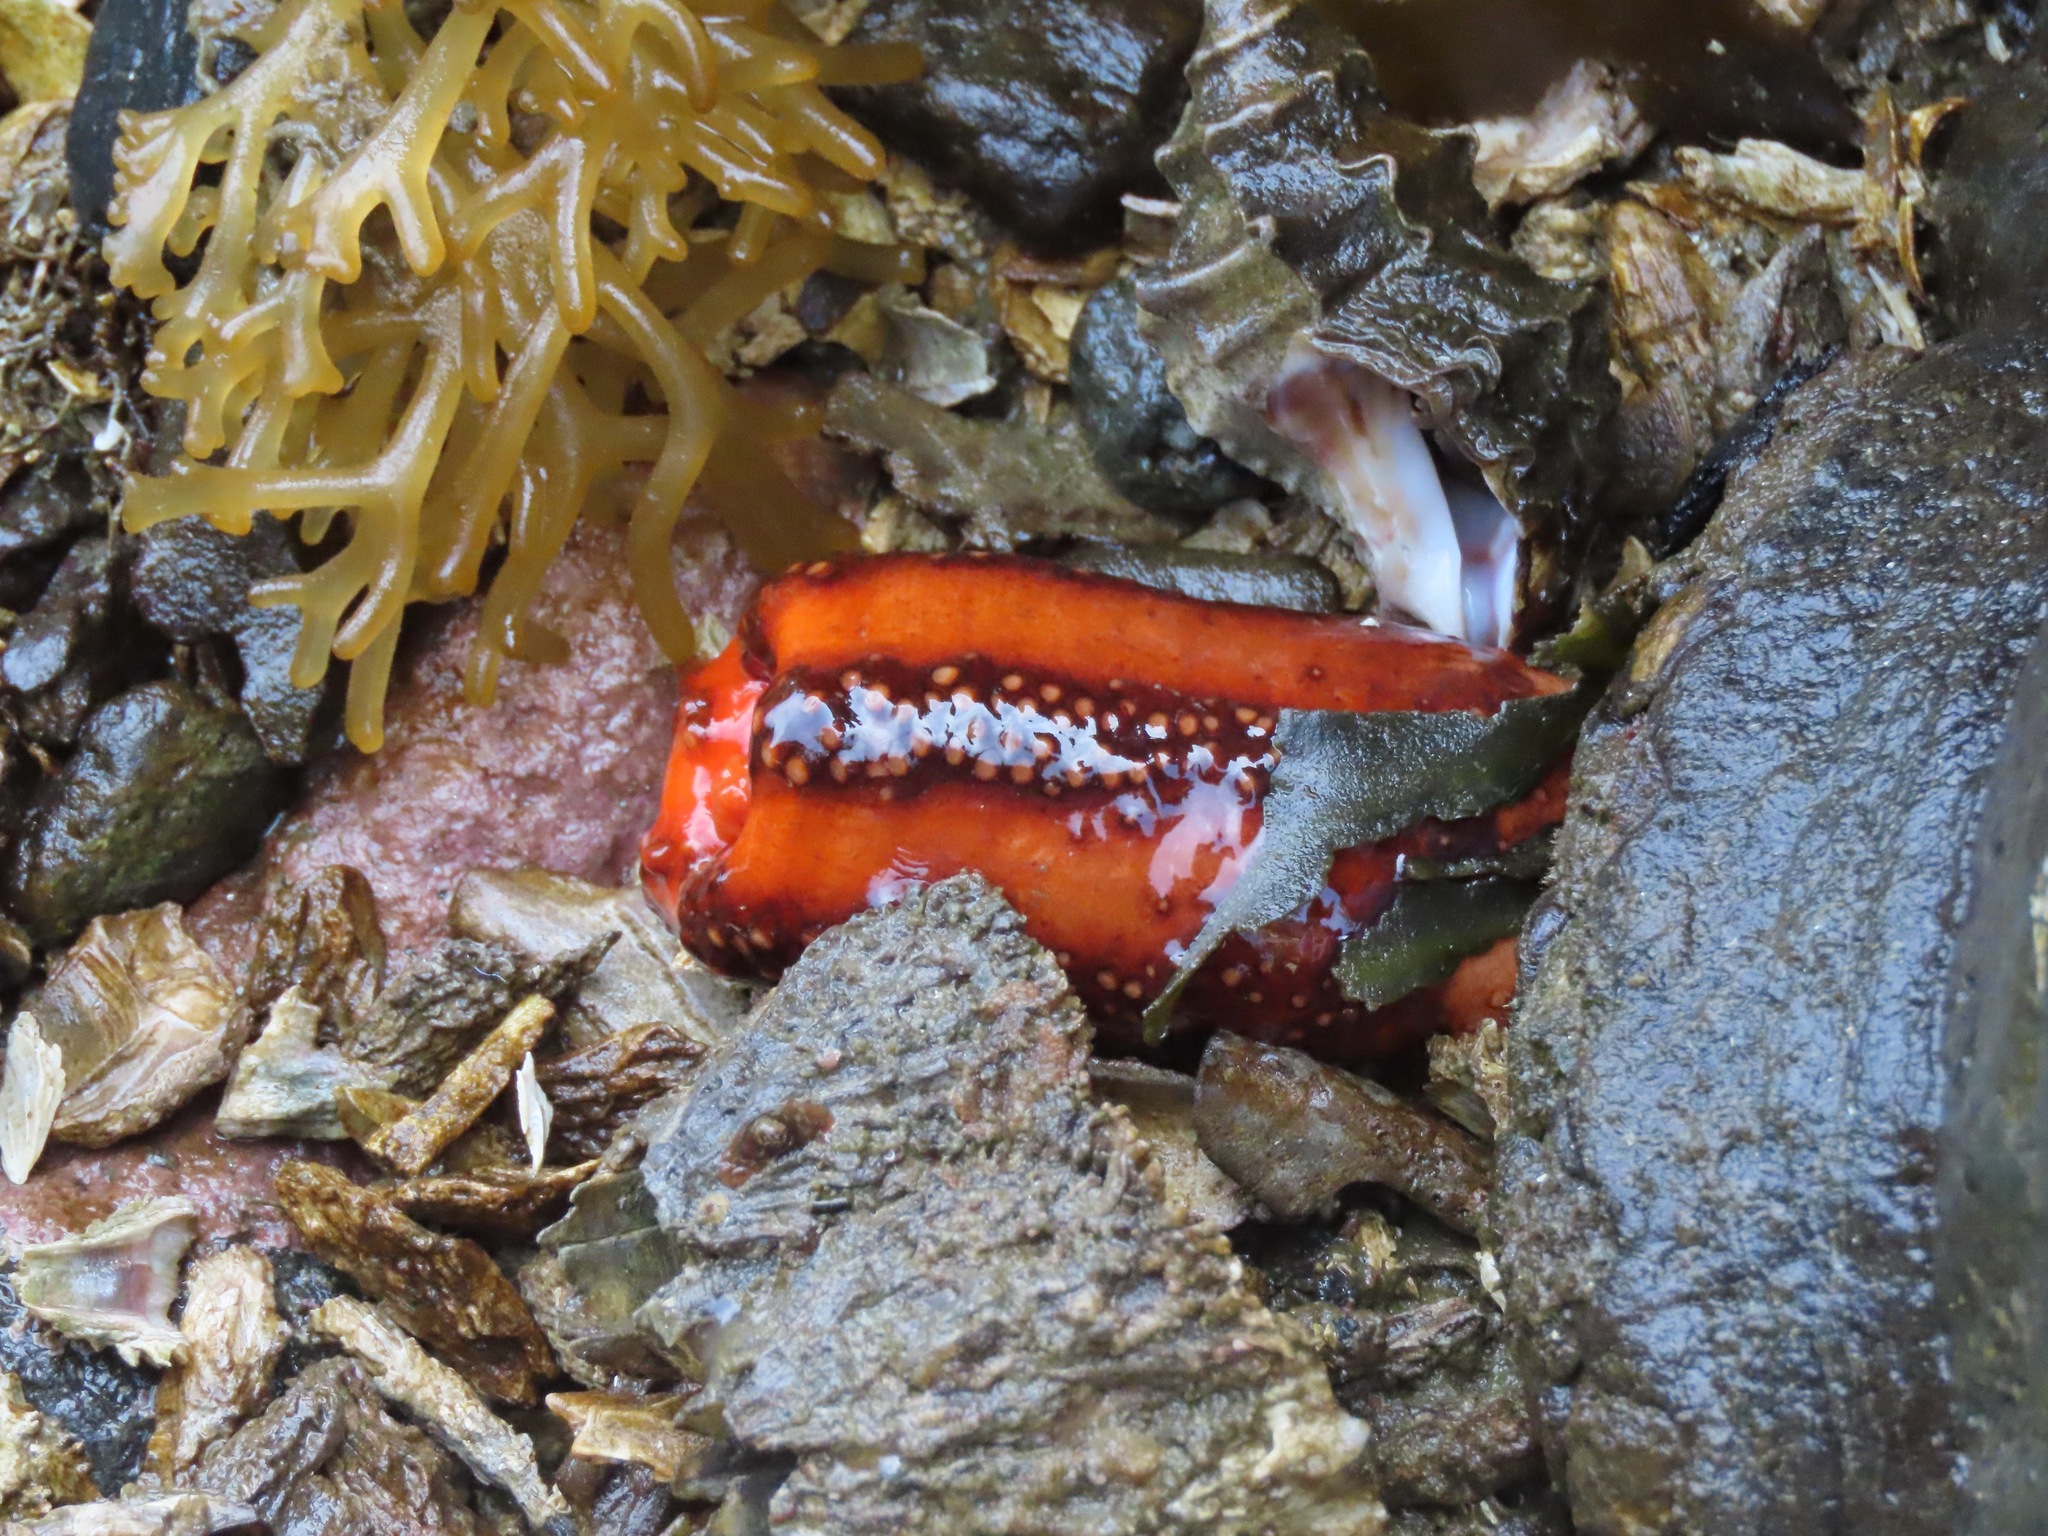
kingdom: Animalia
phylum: Echinodermata
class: Holothuroidea
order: Dendrochirotida
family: Cucumariidae
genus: Cucumaria
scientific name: Cucumaria miniata
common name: Orange sea cucumber
